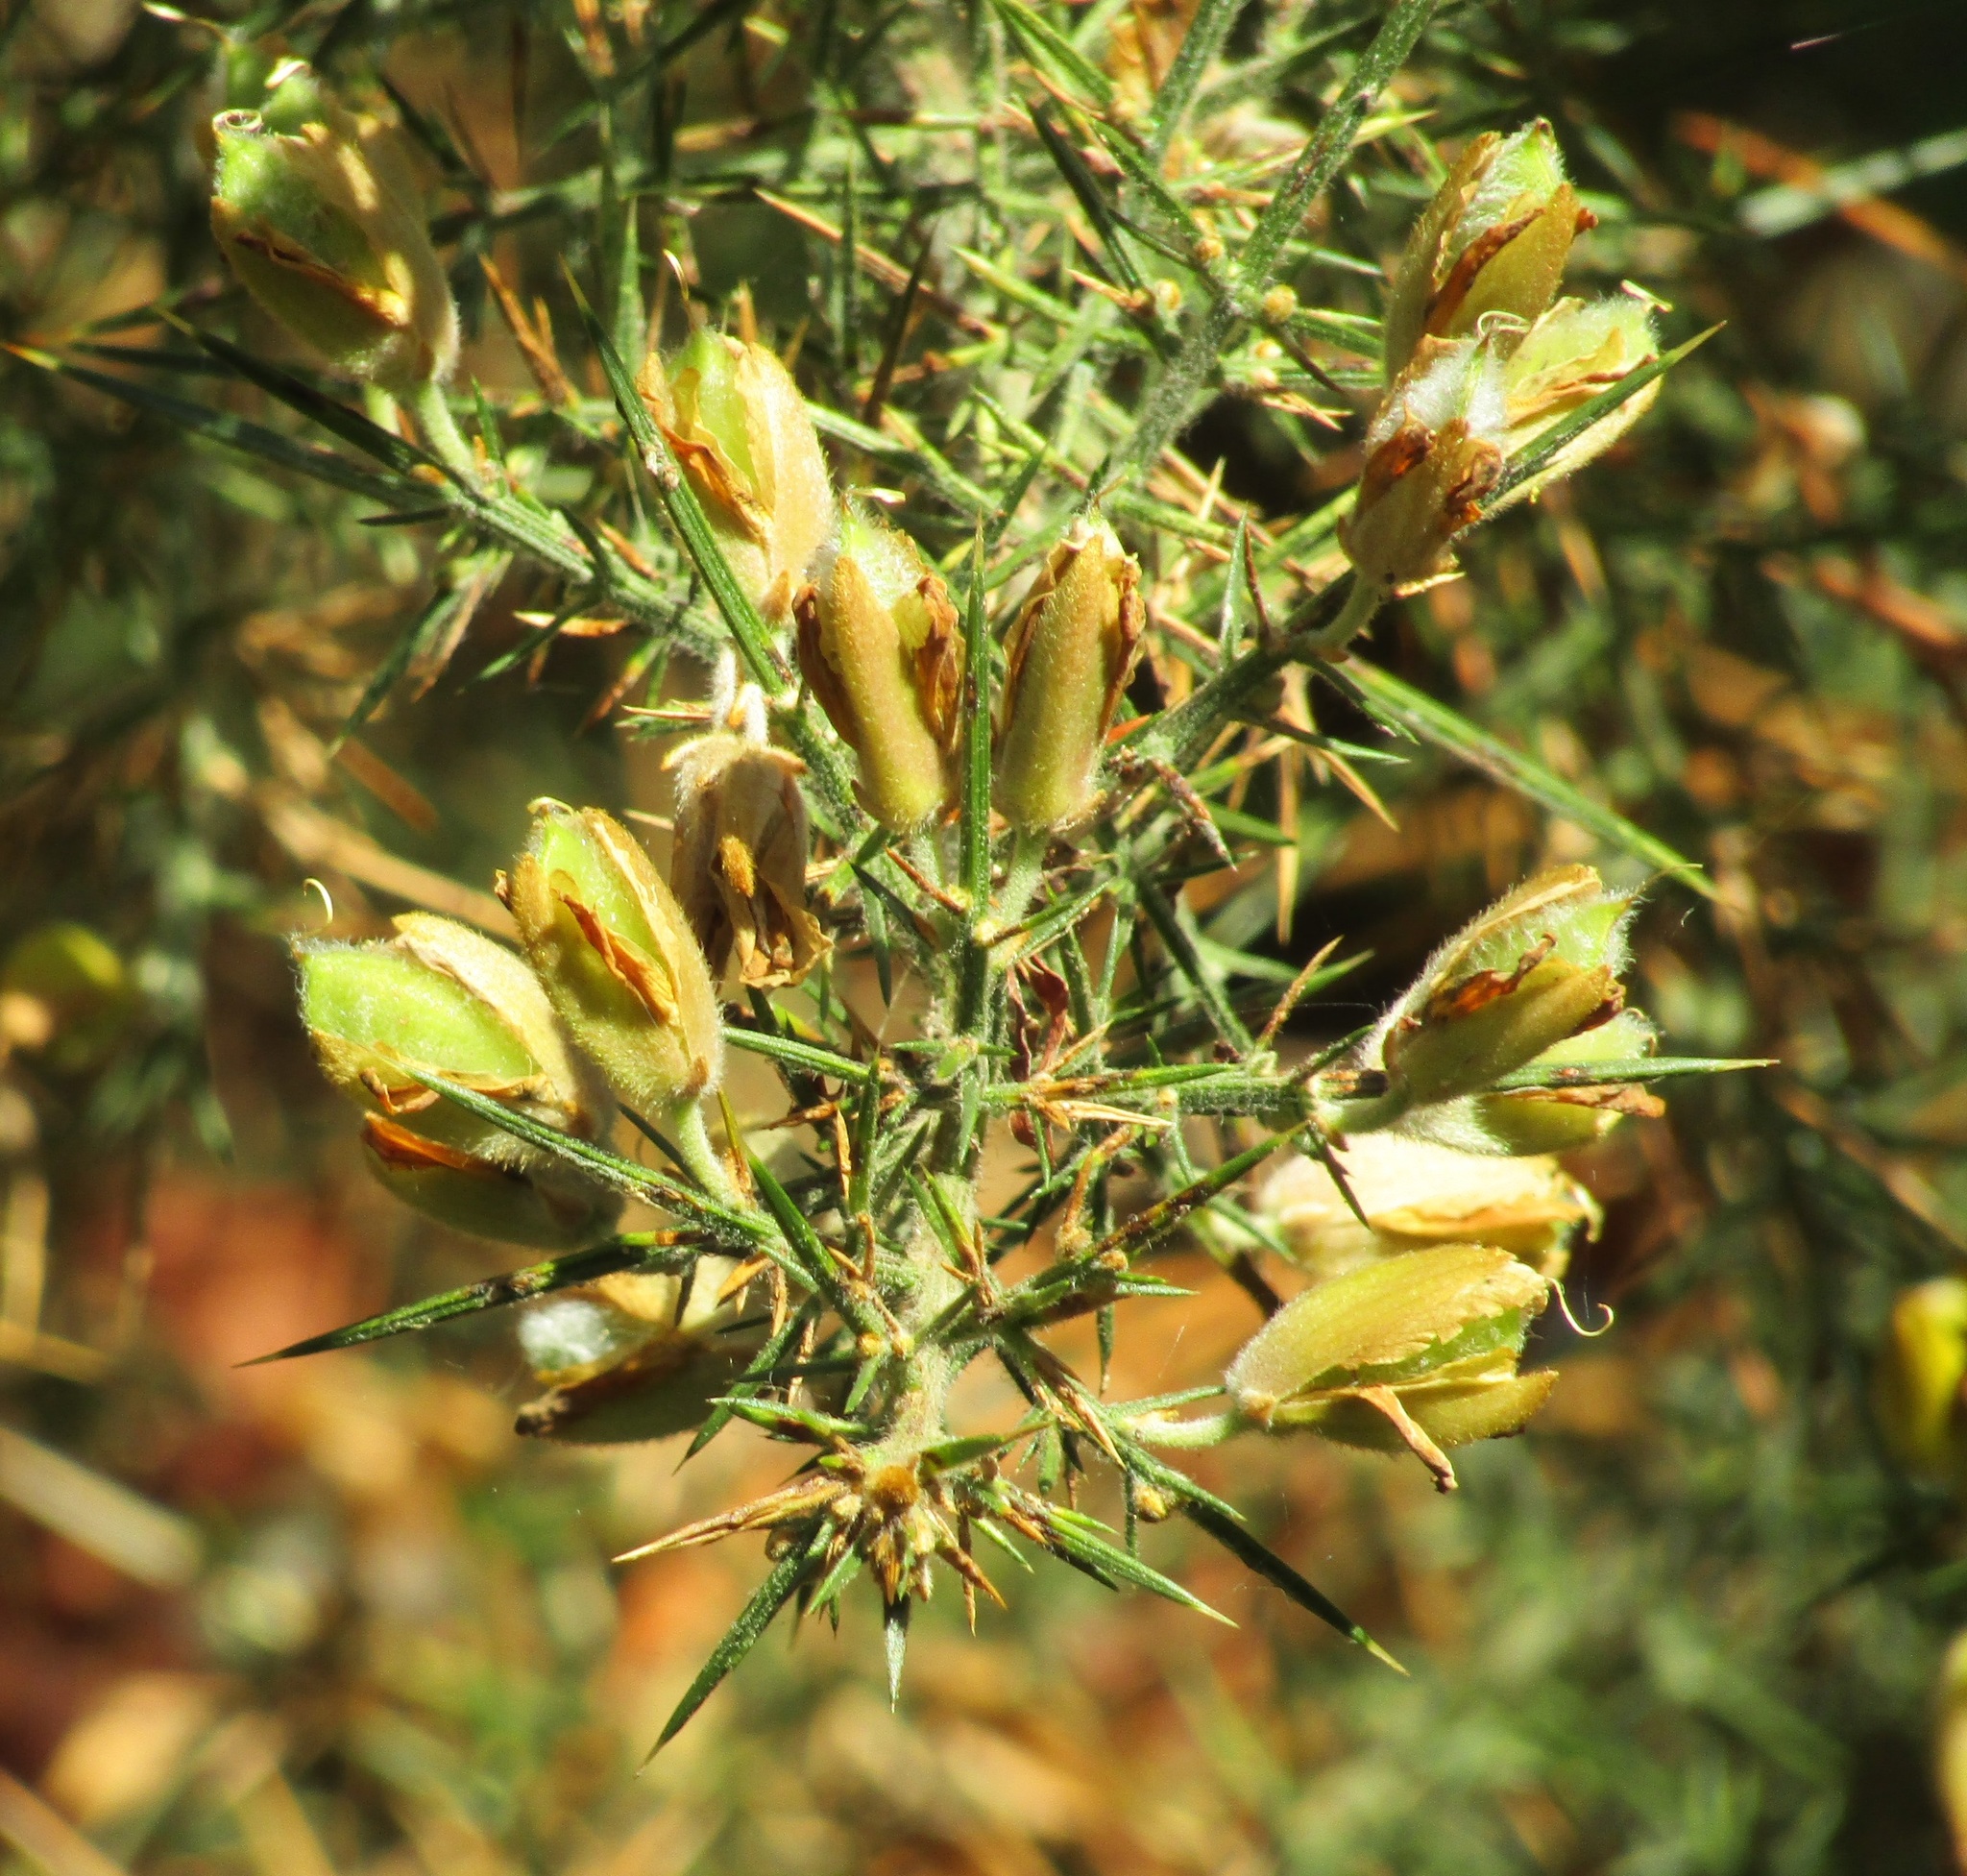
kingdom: Plantae
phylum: Tracheophyta
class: Magnoliopsida
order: Fabales
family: Fabaceae
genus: Ulex
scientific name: Ulex europaeus
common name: Common gorse
